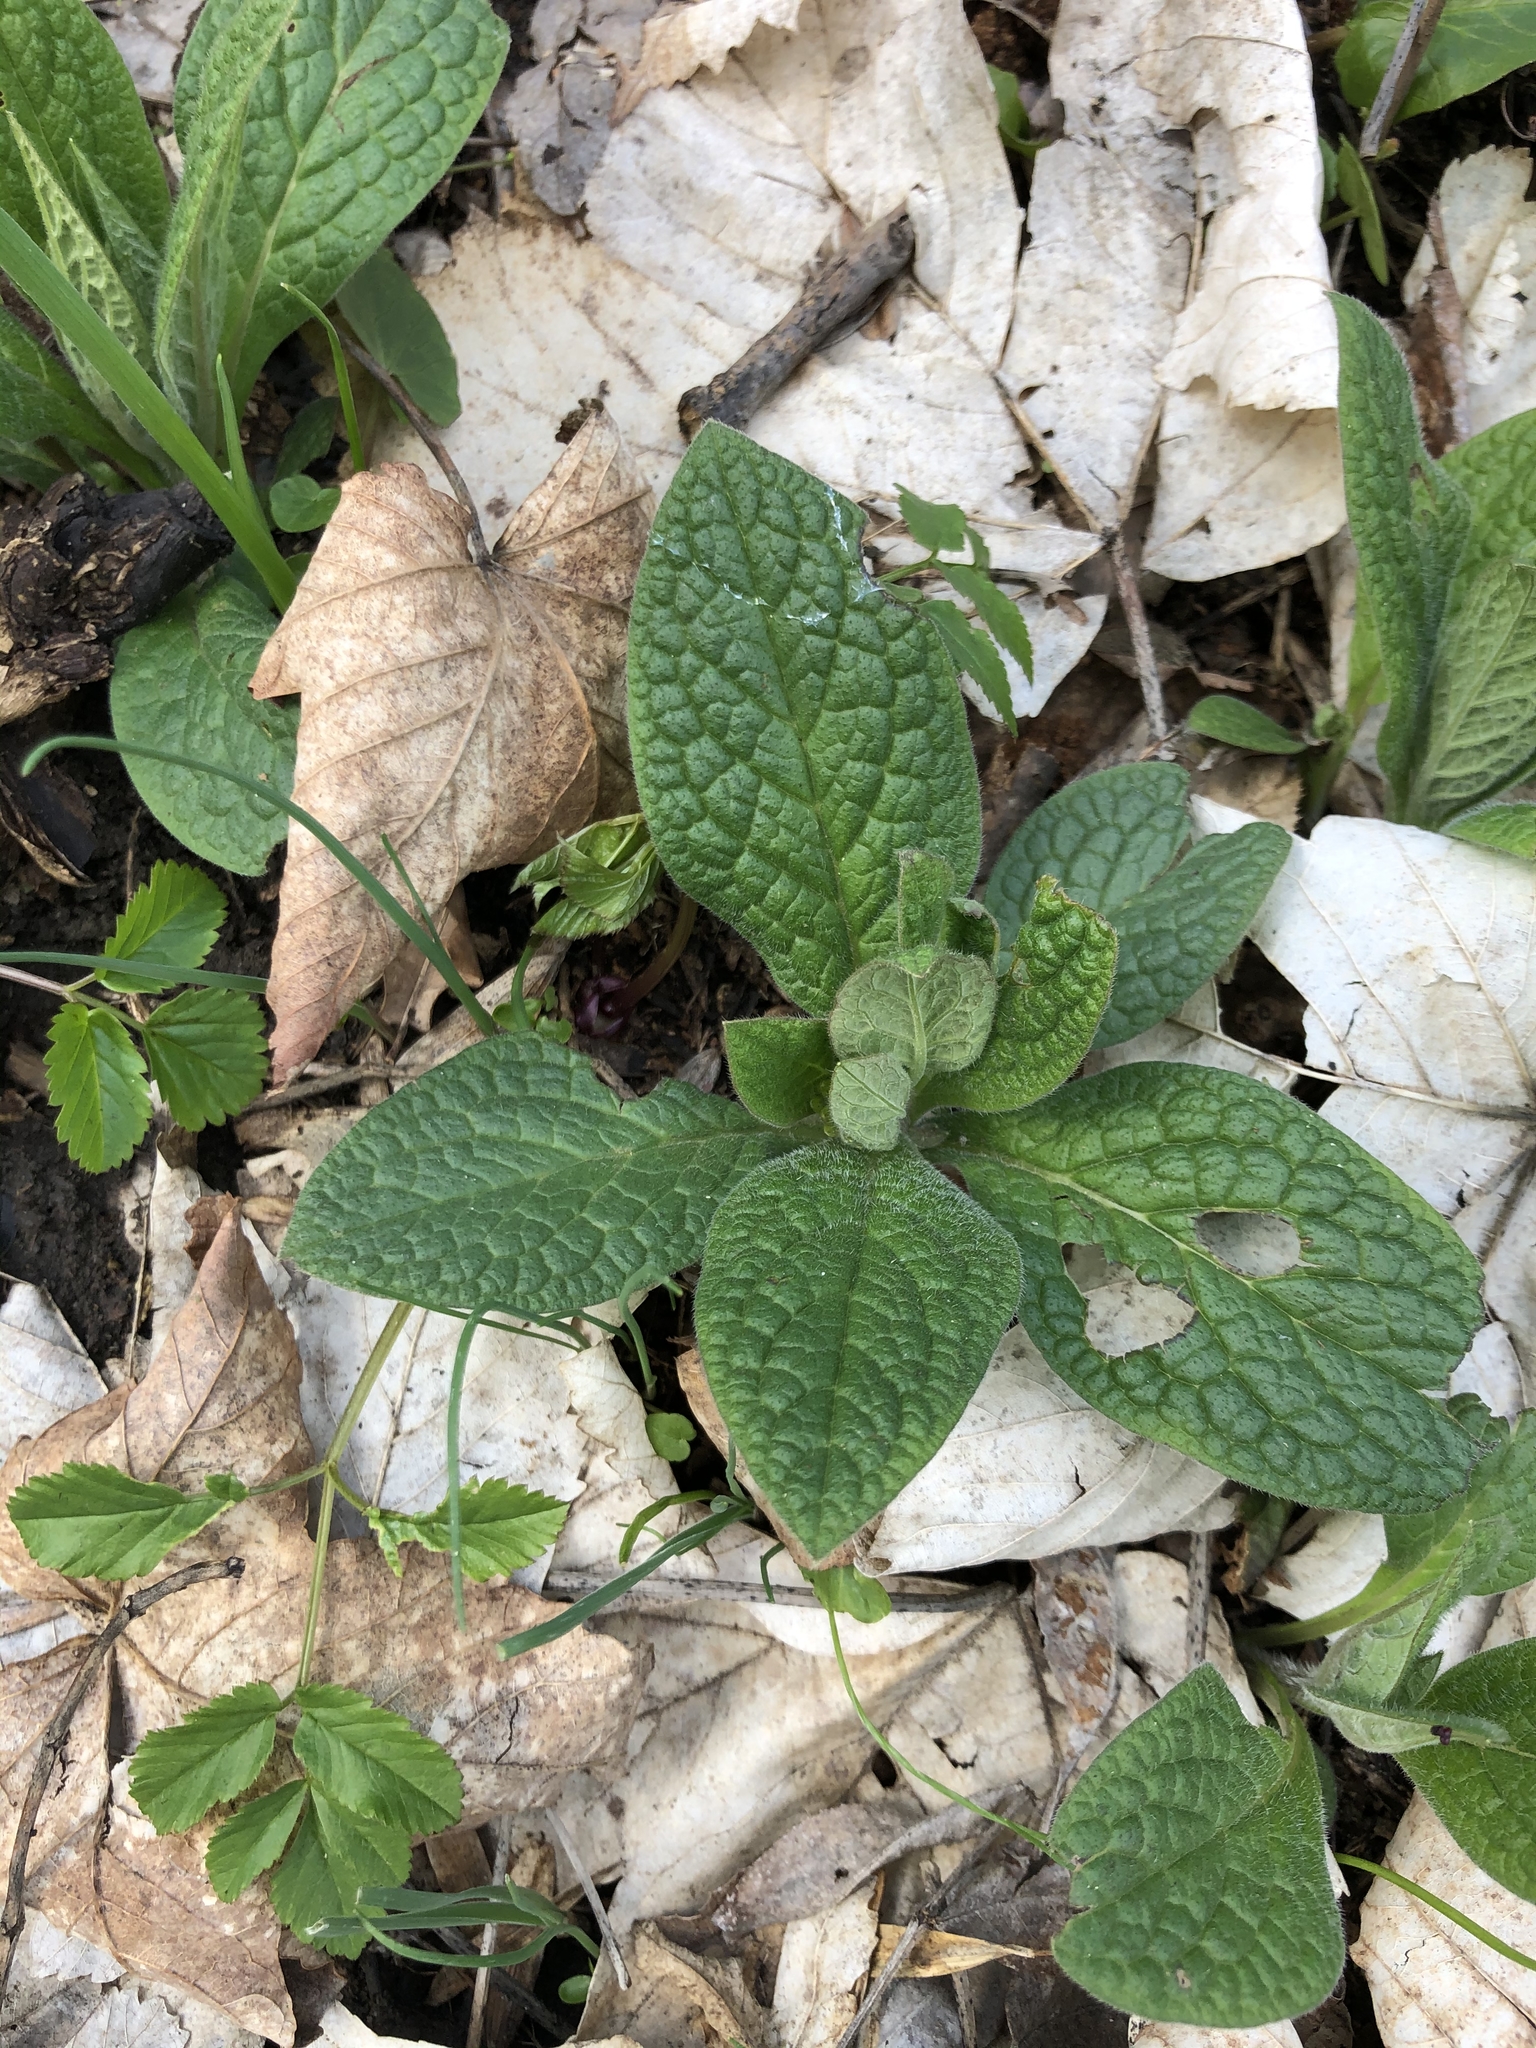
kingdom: Plantae
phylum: Tracheophyta
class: Magnoliopsida
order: Boraginales
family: Boraginaceae
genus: Symphytum
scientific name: Symphytum tuberosum
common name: Tuberous comfrey
